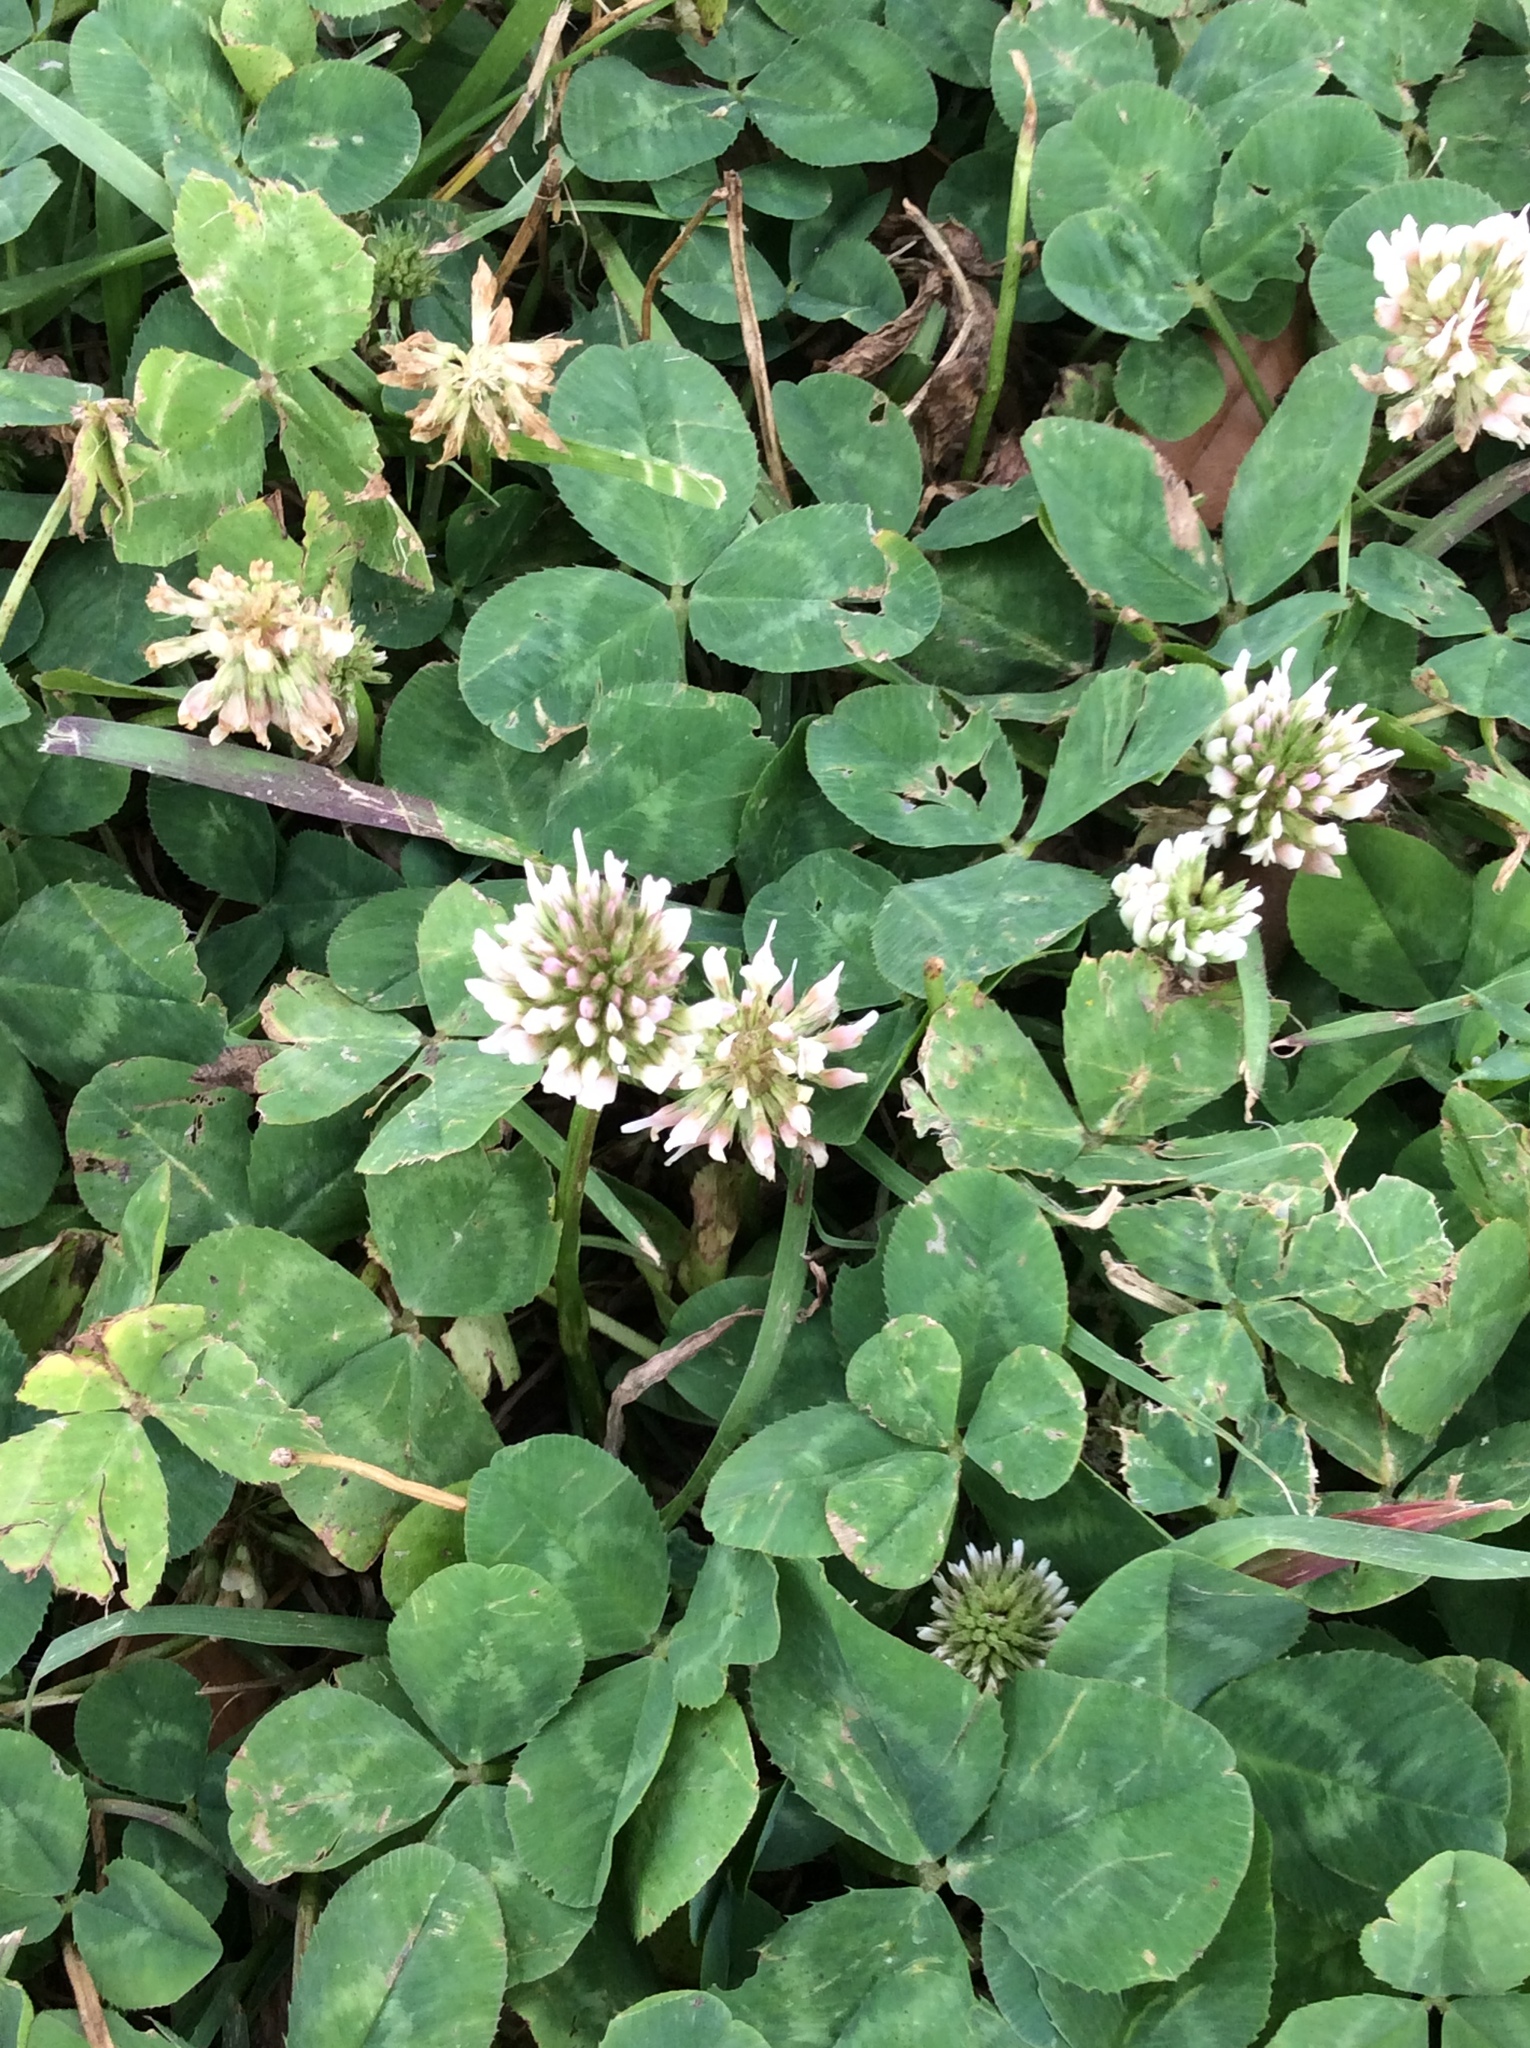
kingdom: Plantae
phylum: Tracheophyta
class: Magnoliopsida
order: Fabales
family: Fabaceae
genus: Trifolium
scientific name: Trifolium repens
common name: White clover
